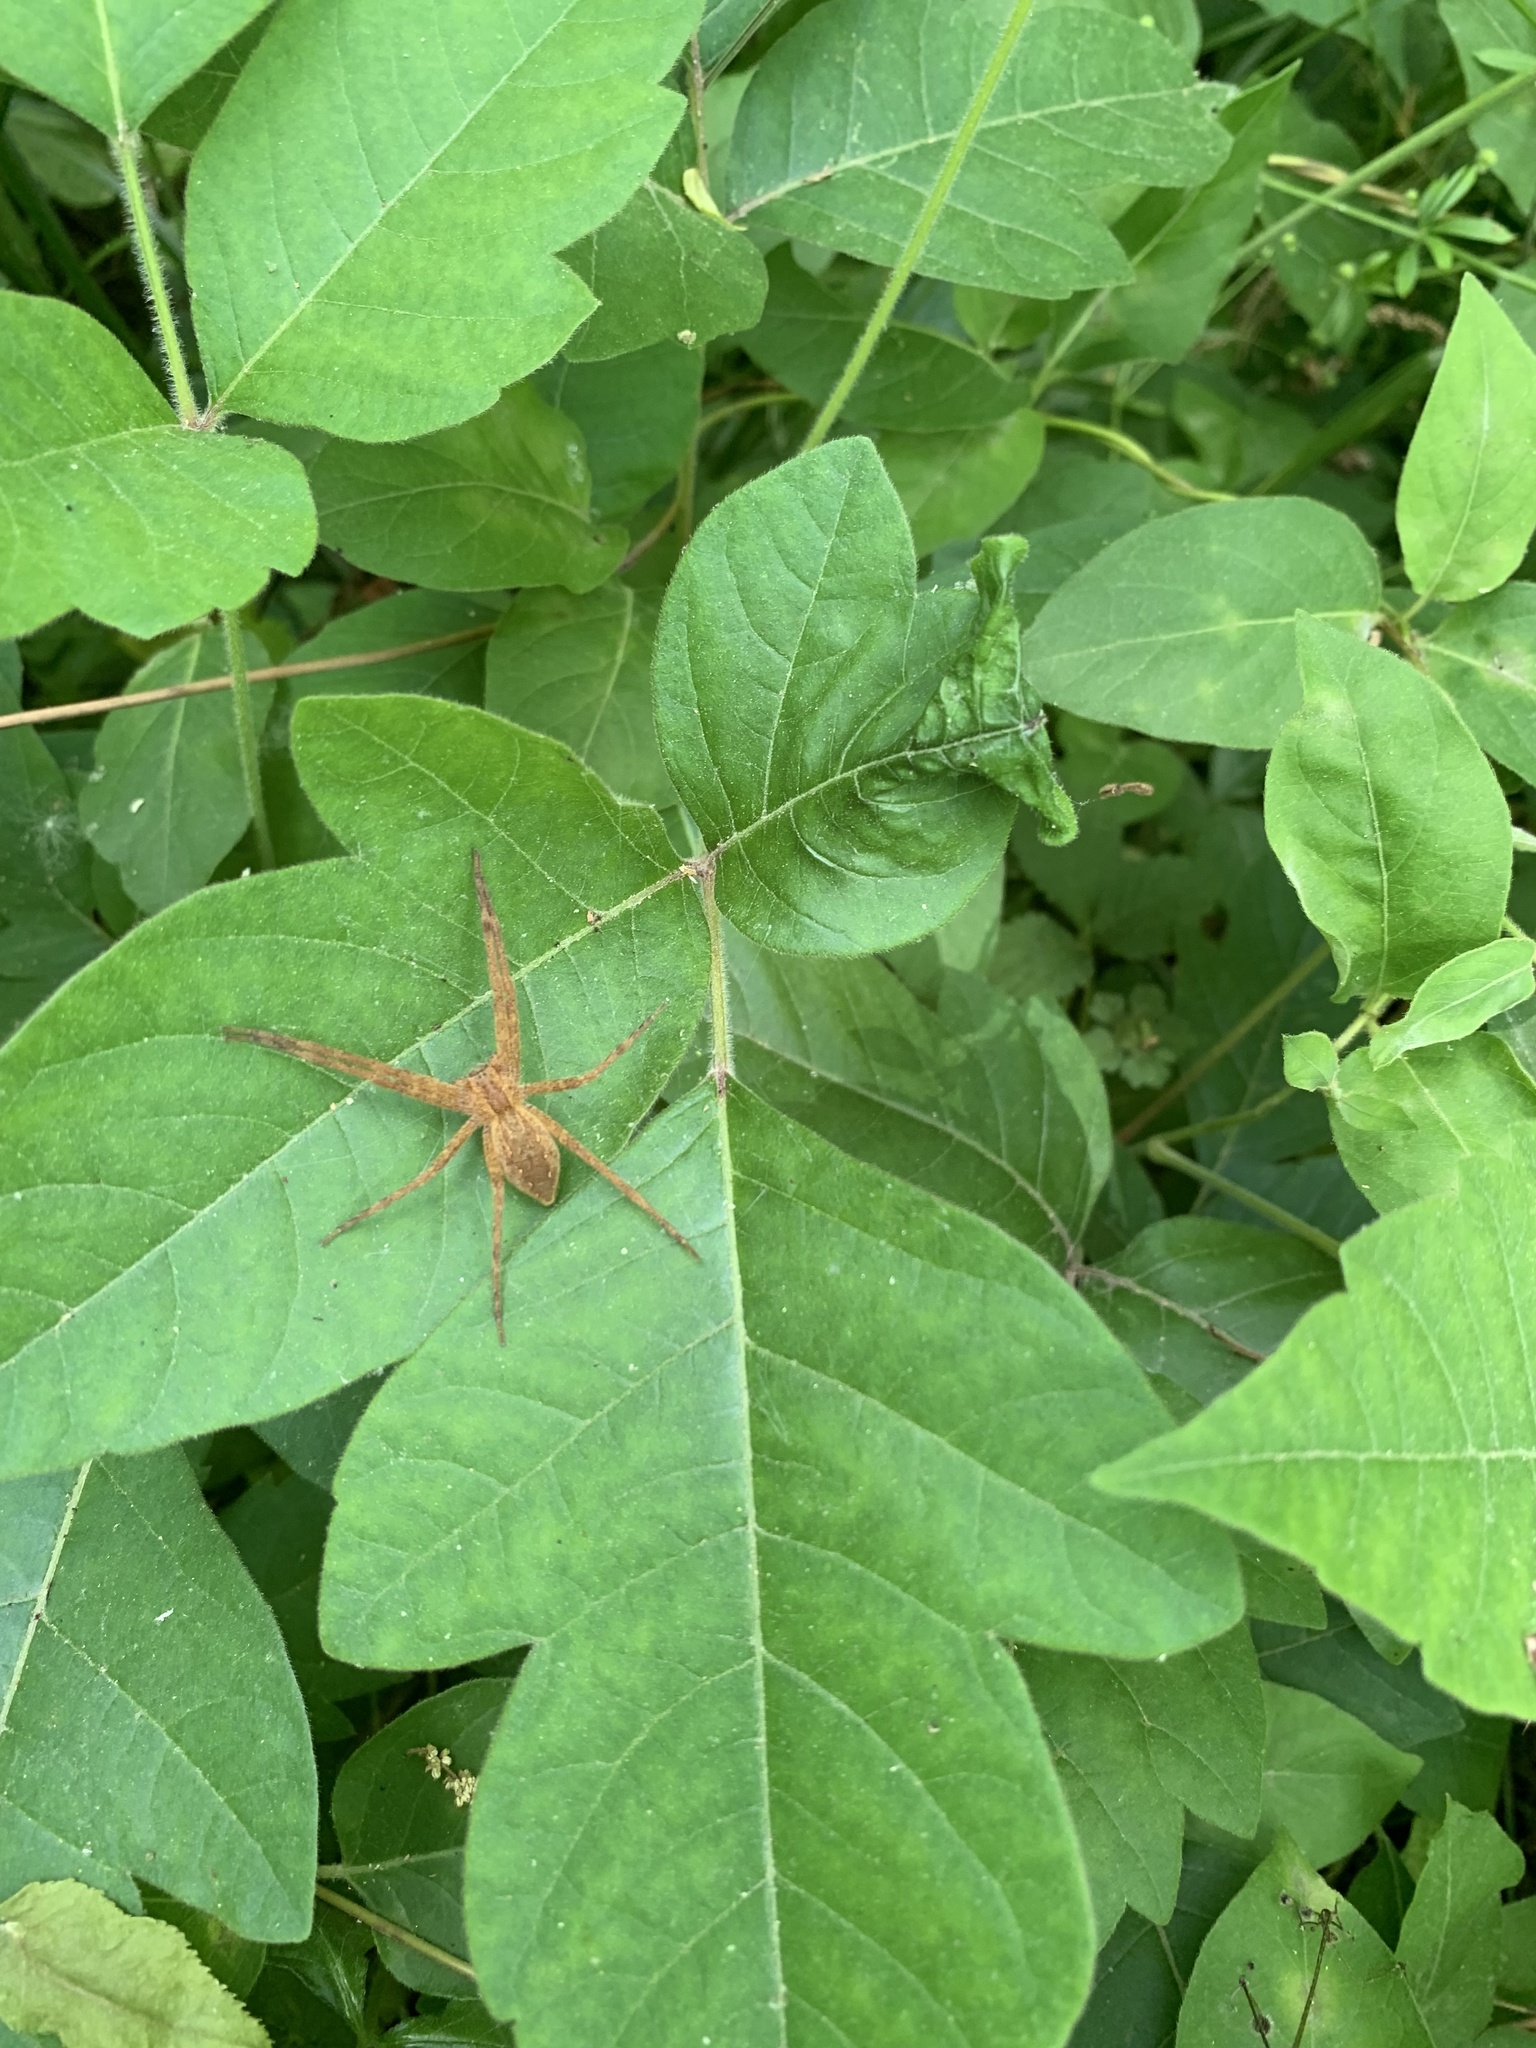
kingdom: Animalia
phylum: Arthropoda
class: Arachnida
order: Araneae
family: Pisauridae
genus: Pisaurina
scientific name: Pisaurina mira
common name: American nursery web spider
